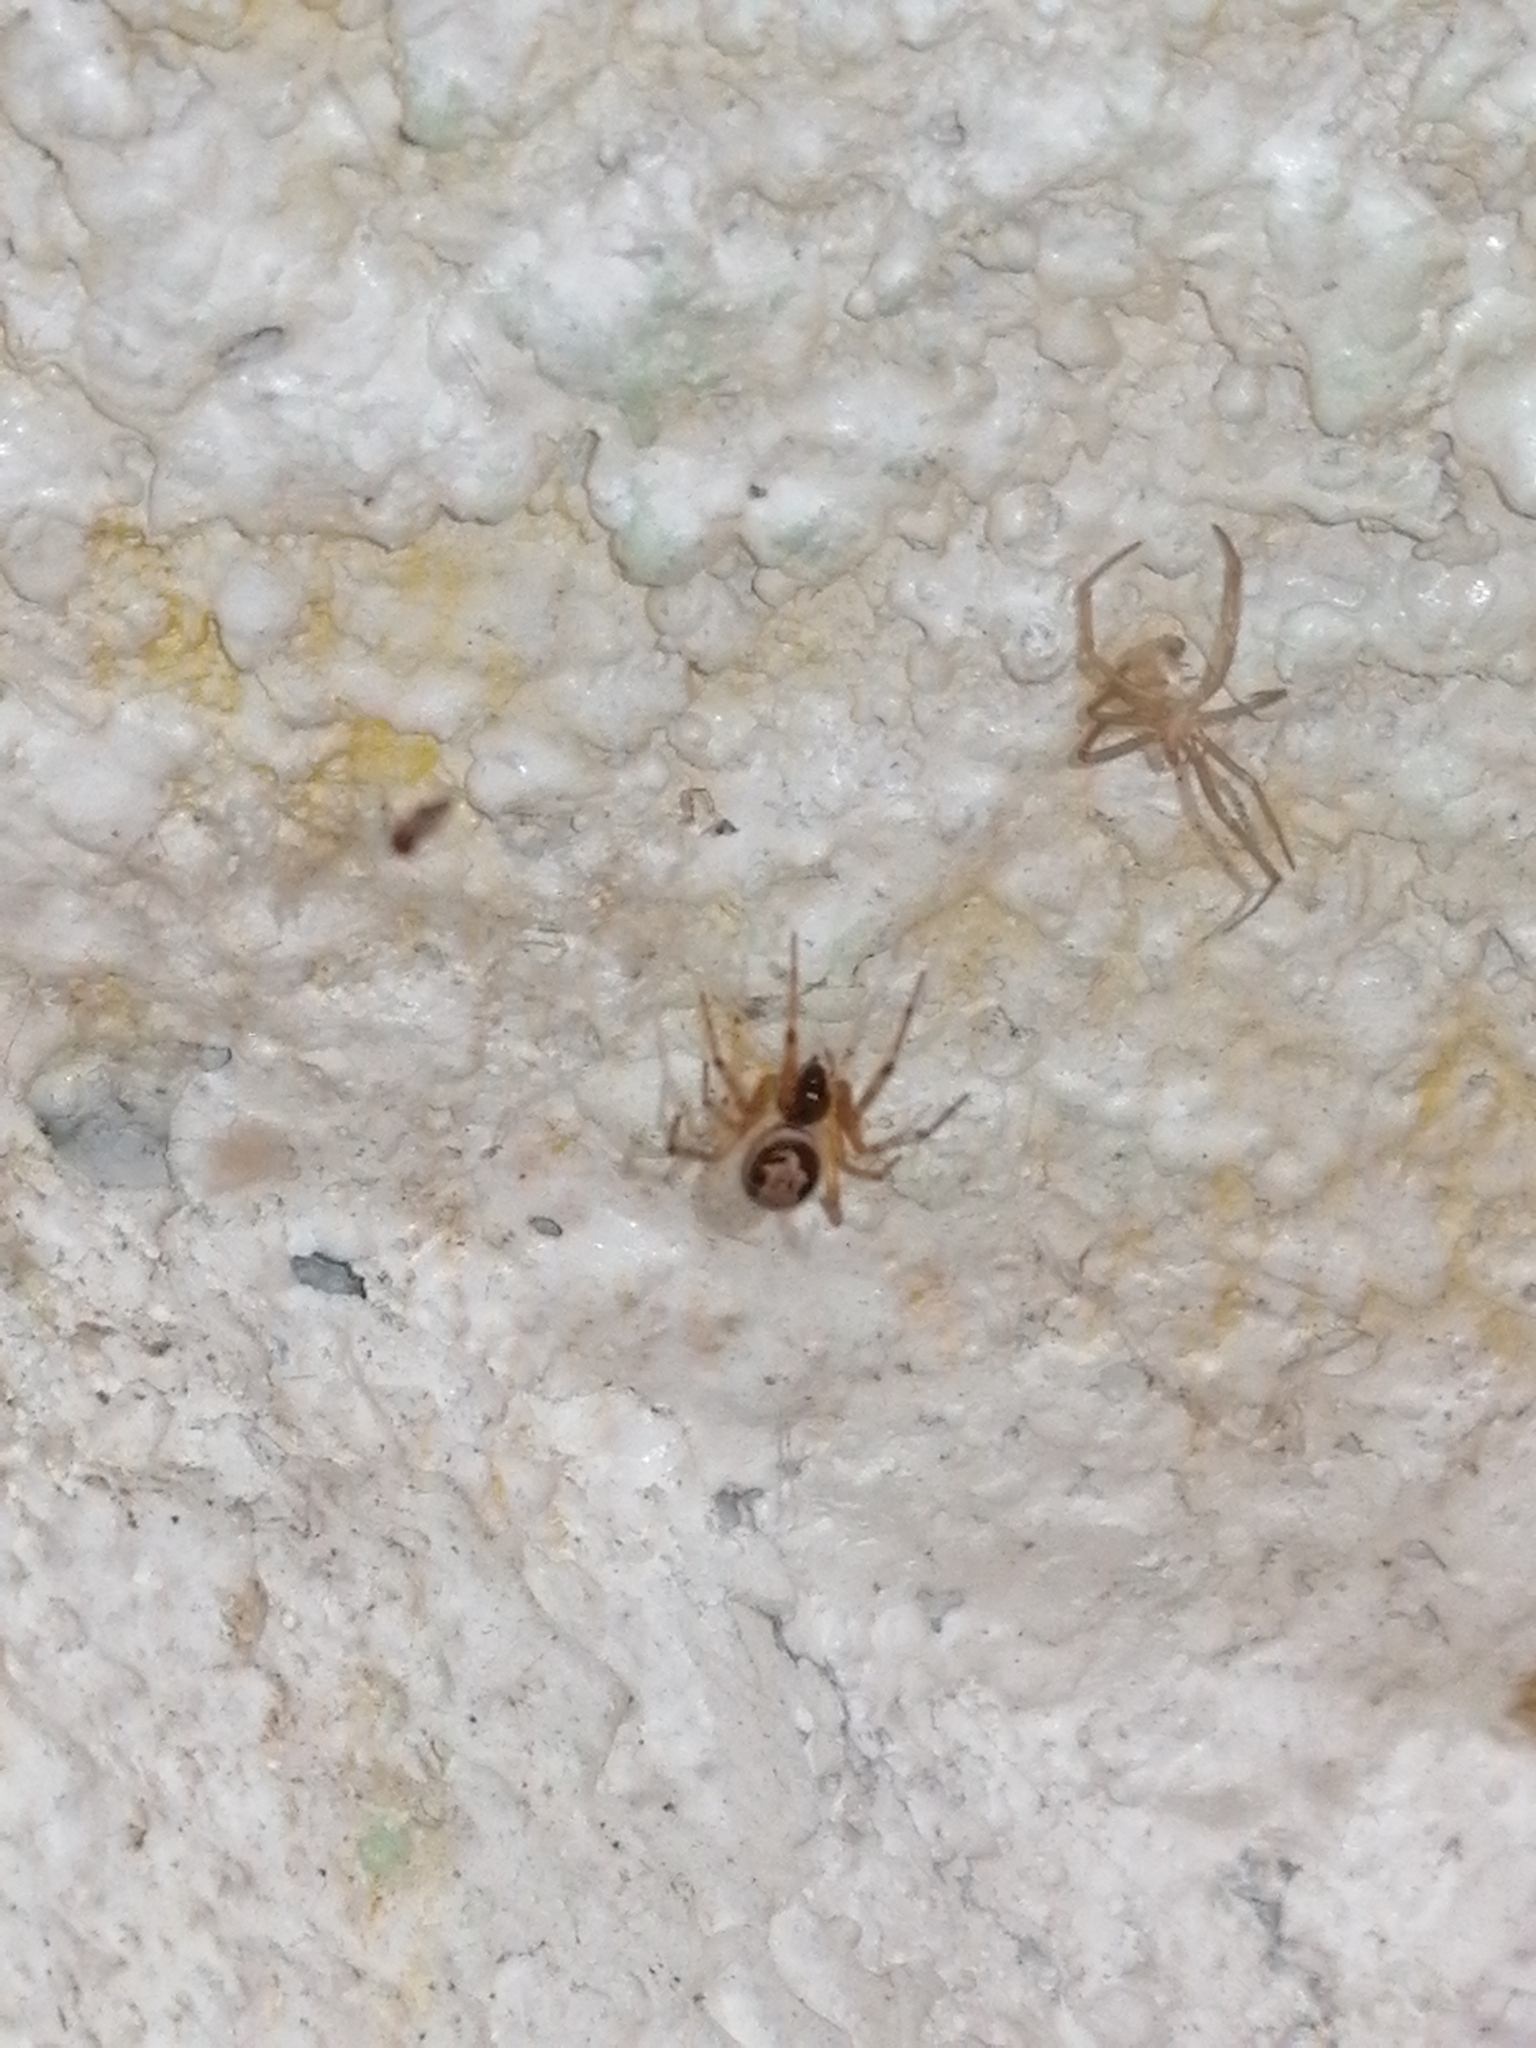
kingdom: Animalia
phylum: Arthropoda
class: Arachnida
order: Araneae
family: Theridiidae
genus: Steatoda
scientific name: Steatoda nobilis
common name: Cobweb weaver
